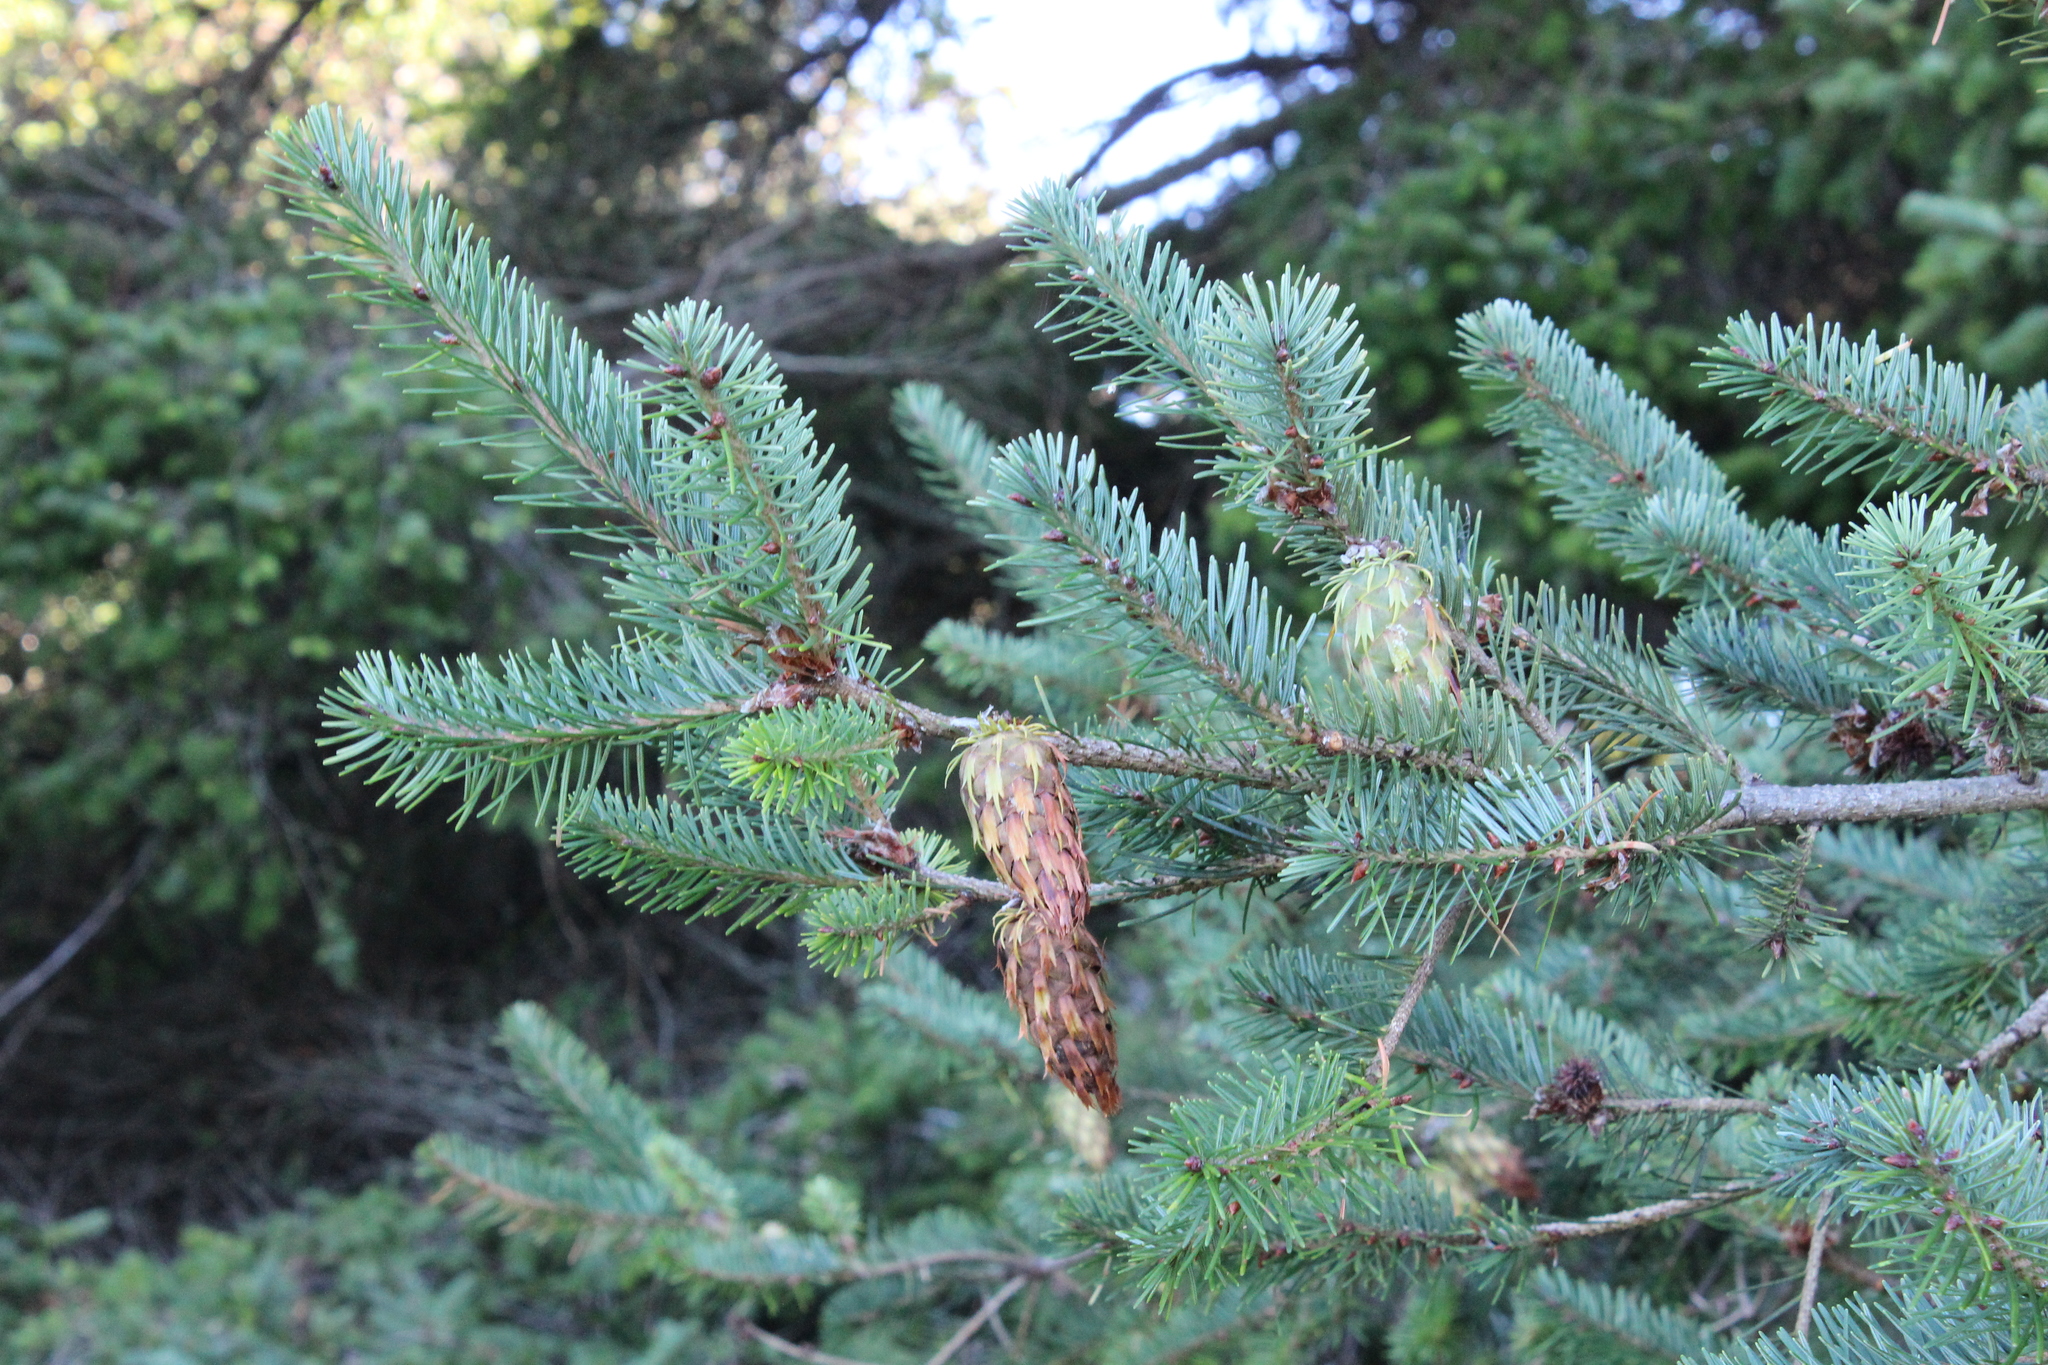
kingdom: Plantae
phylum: Tracheophyta
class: Pinopsida
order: Pinales
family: Pinaceae
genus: Pseudotsuga
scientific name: Pseudotsuga menziesii
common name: Douglas fir
